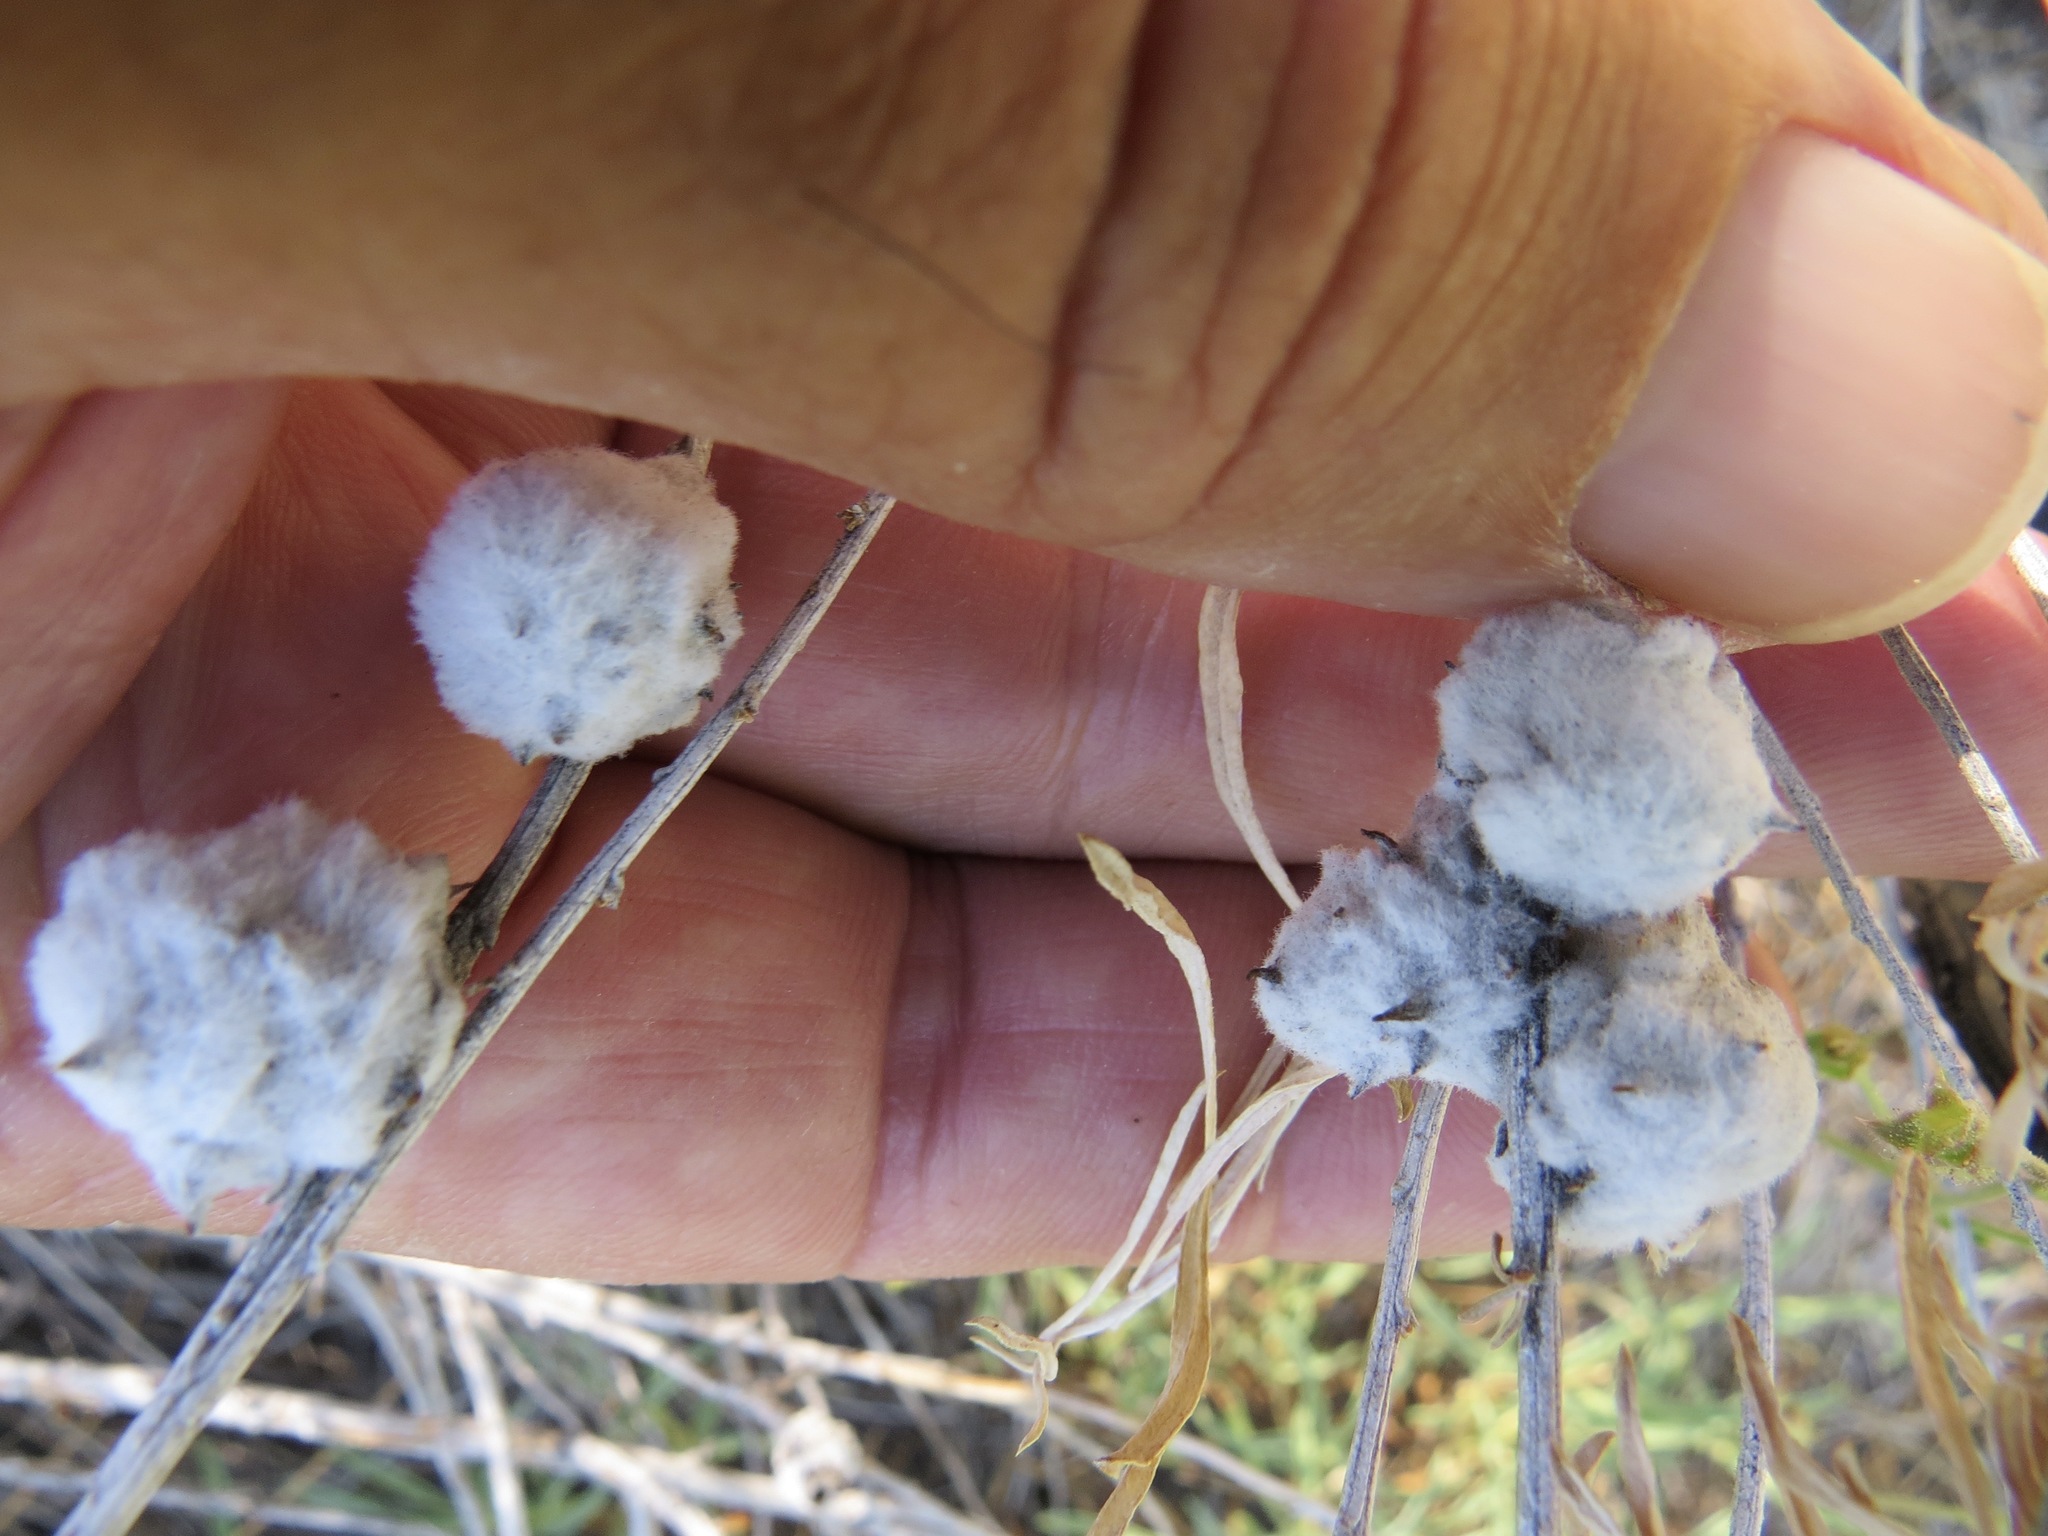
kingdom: Animalia
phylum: Arthropoda
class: Insecta
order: Diptera
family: Tephritidae
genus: Aciurina
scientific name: Aciurina bigeloviae
